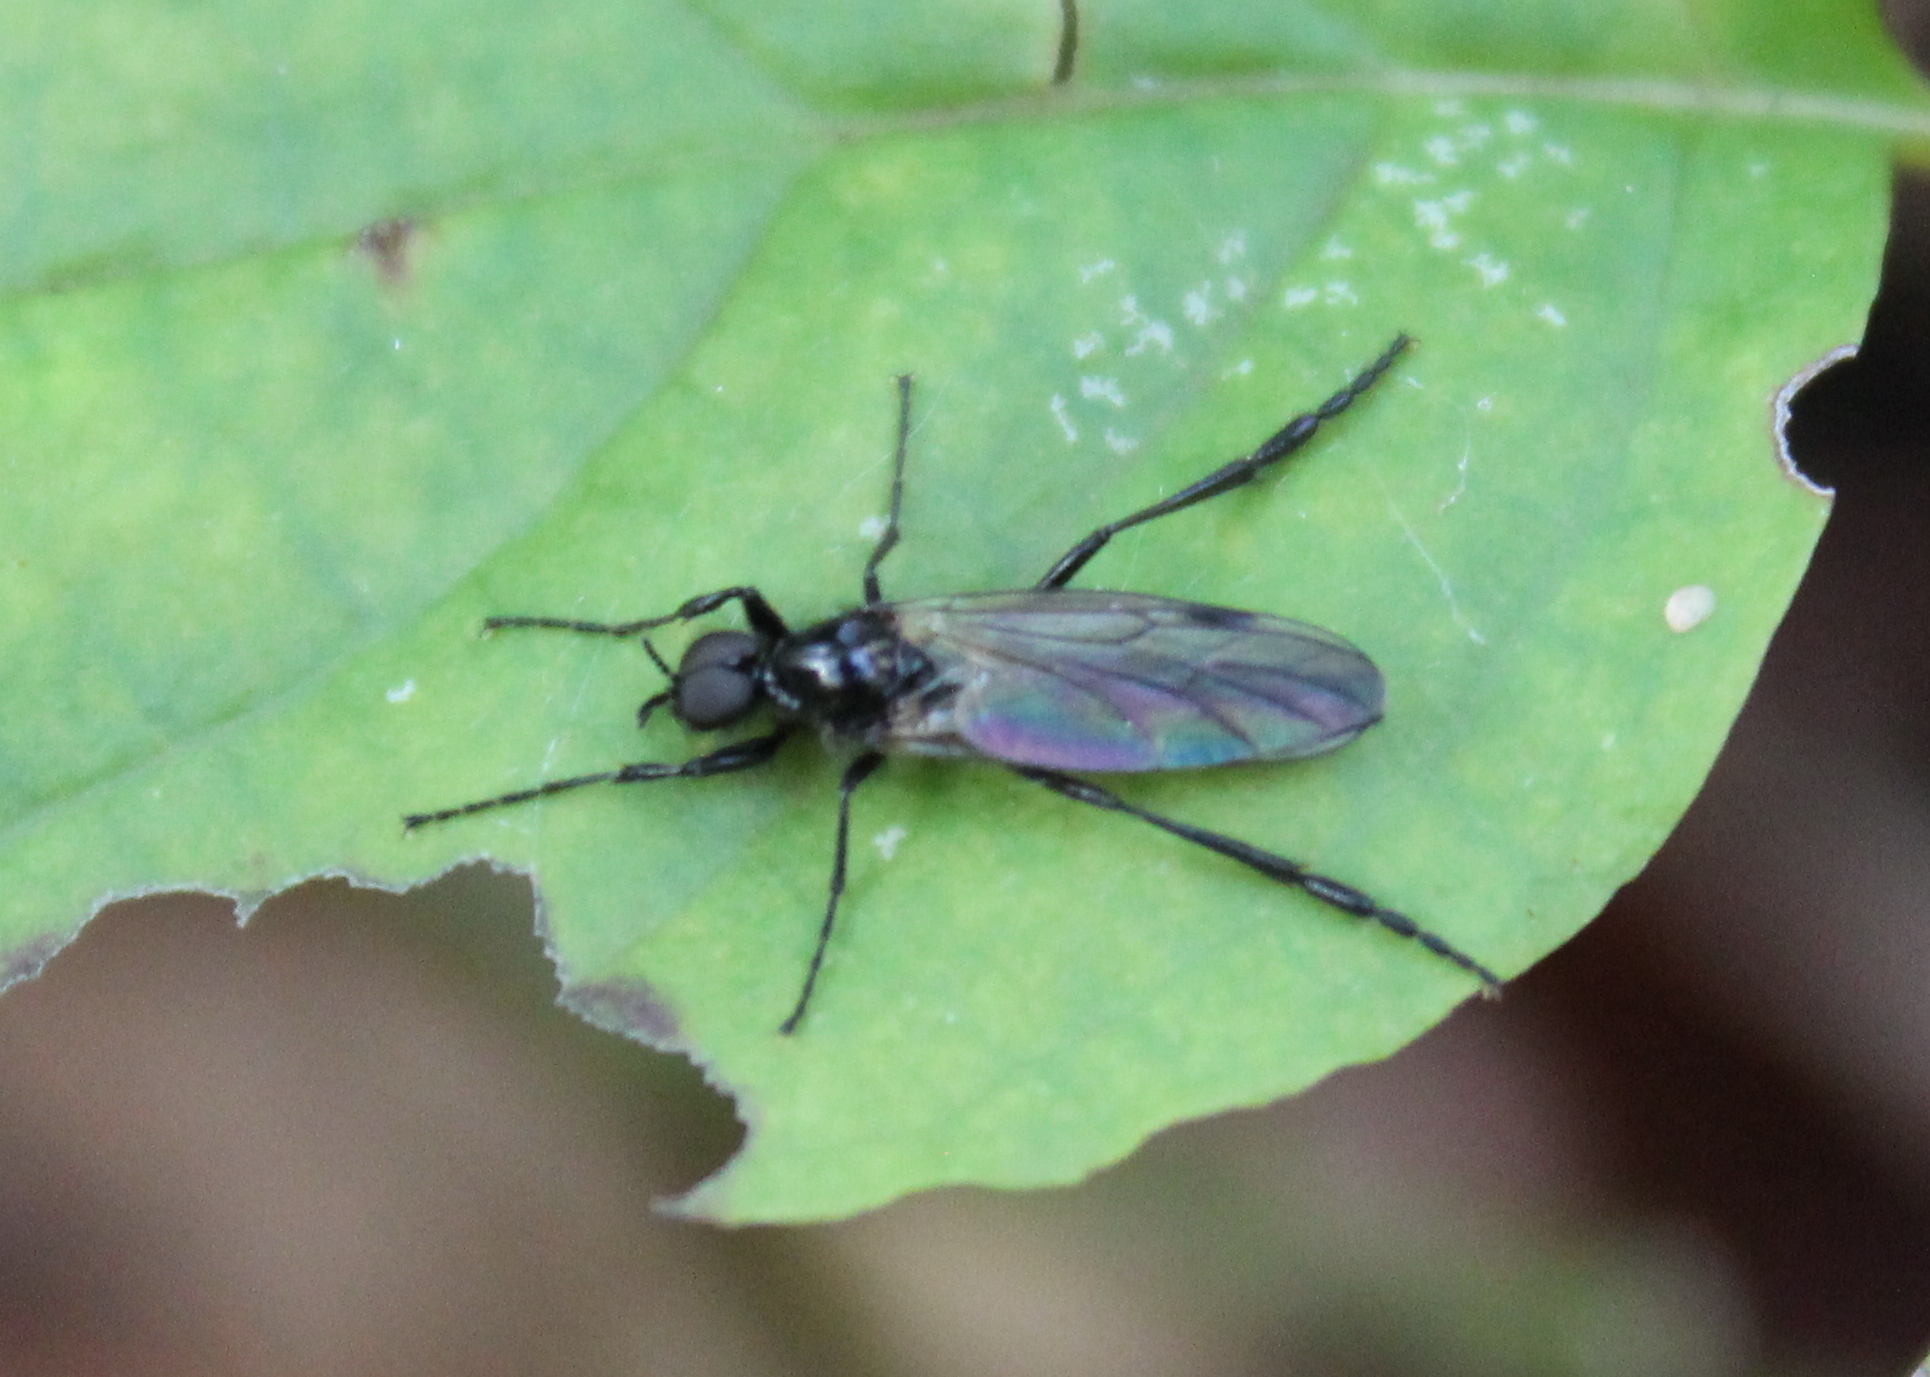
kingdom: Animalia
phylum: Arthropoda
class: Insecta
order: Diptera
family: Bibionidae
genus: Bibio
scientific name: Bibio
